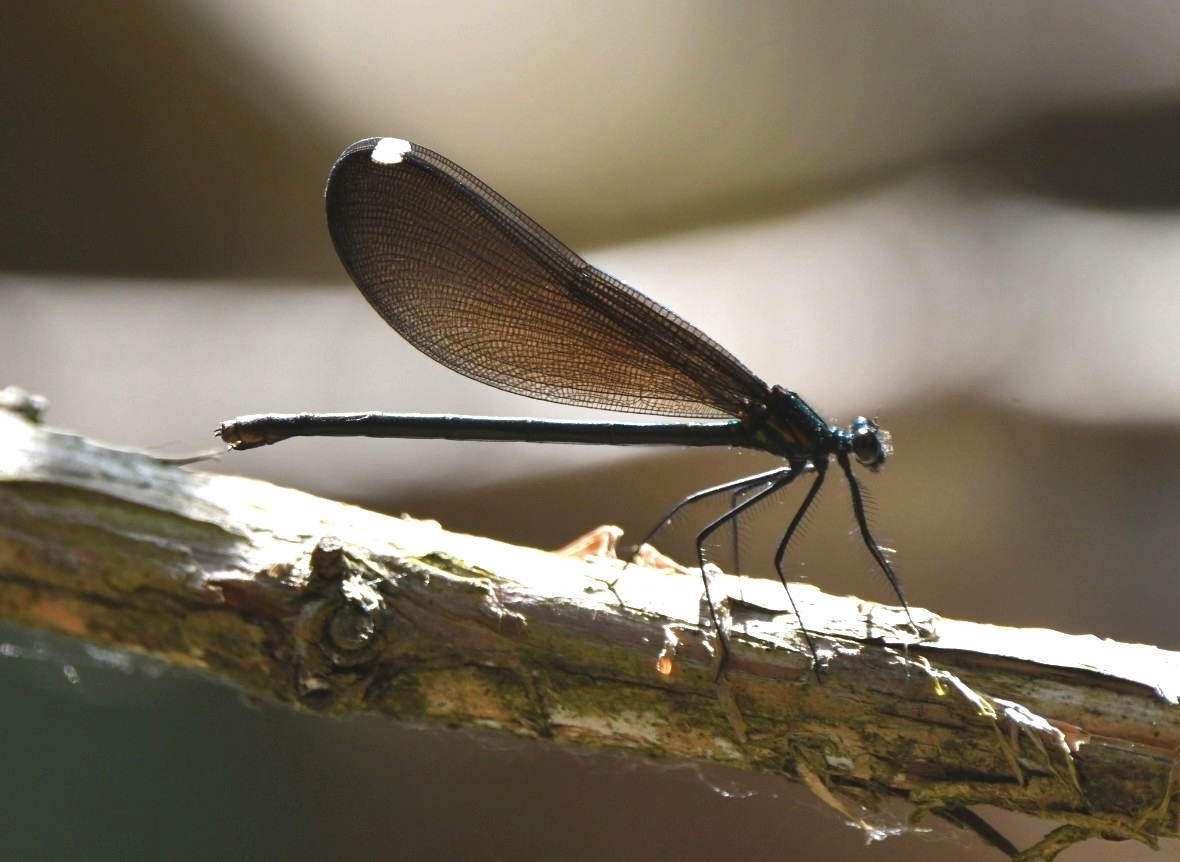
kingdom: Animalia
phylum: Arthropoda
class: Insecta
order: Odonata
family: Calopterygidae
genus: Calopteryx
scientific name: Calopteryx maculata
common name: Ebony jewelwing
